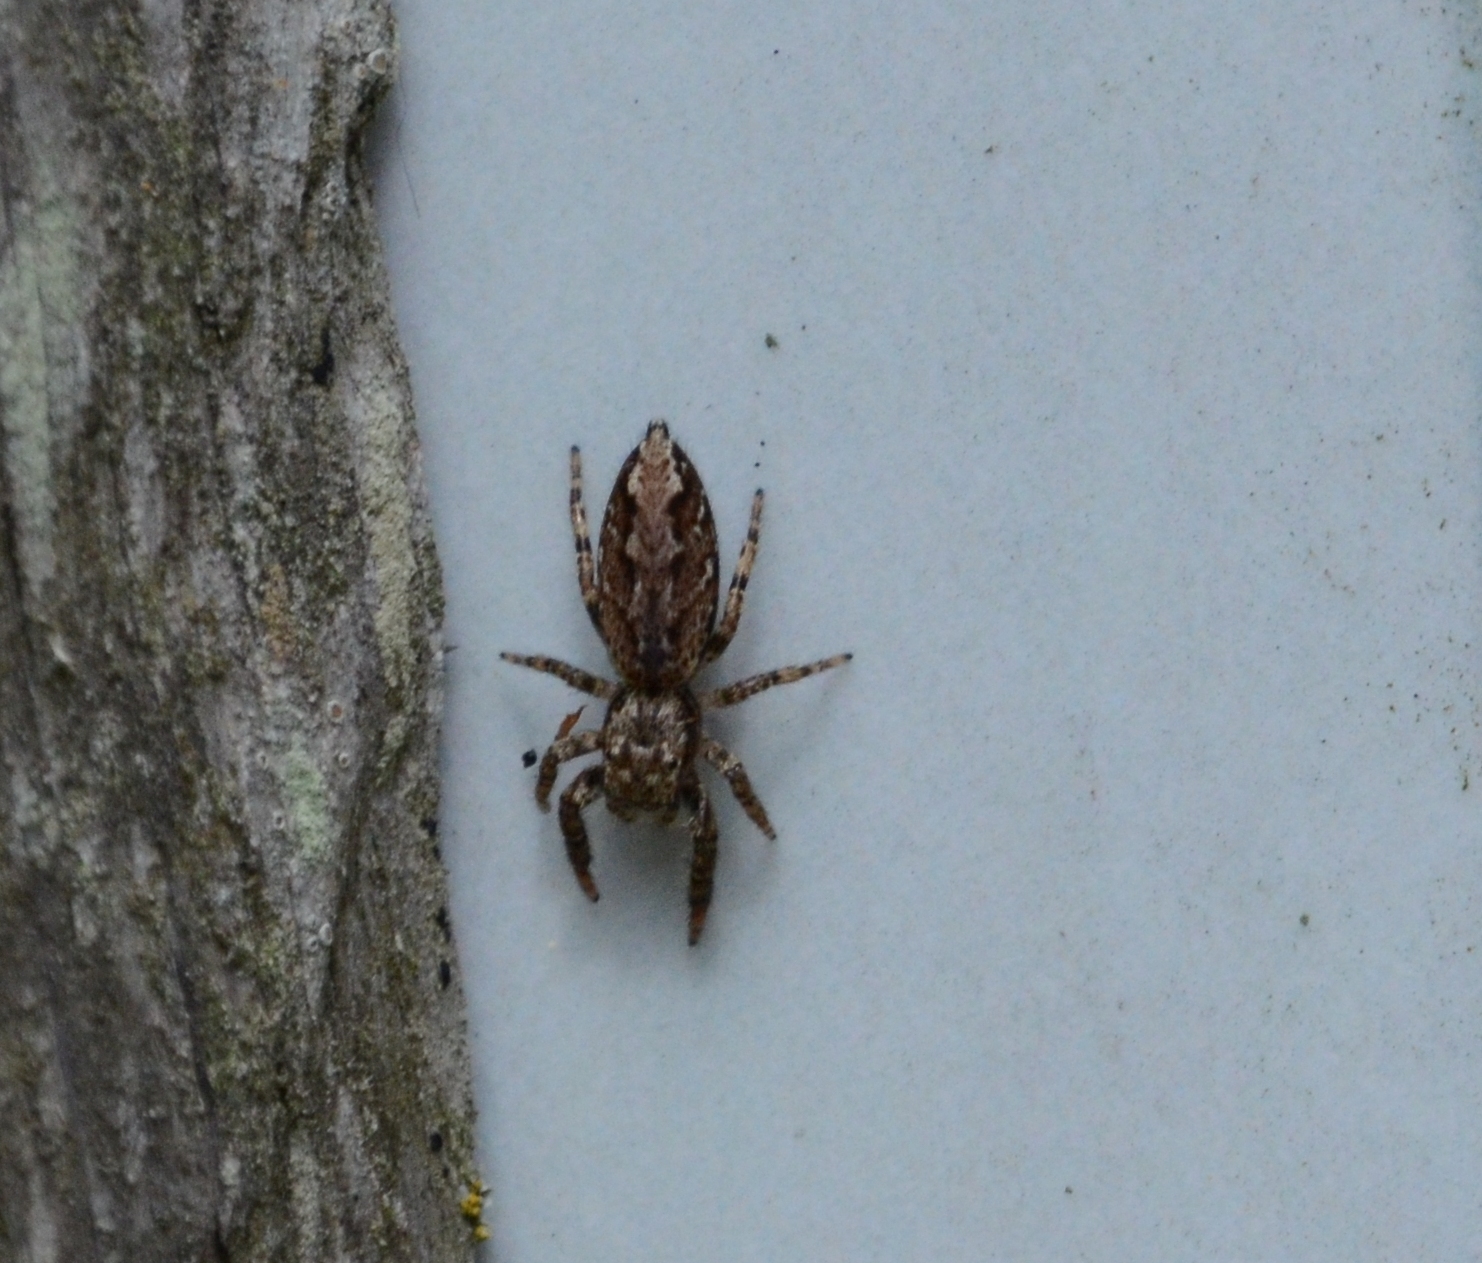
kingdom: Animalia
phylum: Arthropoda
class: Arachnida
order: Araneae
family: Salticidae
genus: Marpissa
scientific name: Marpissa muscosa
